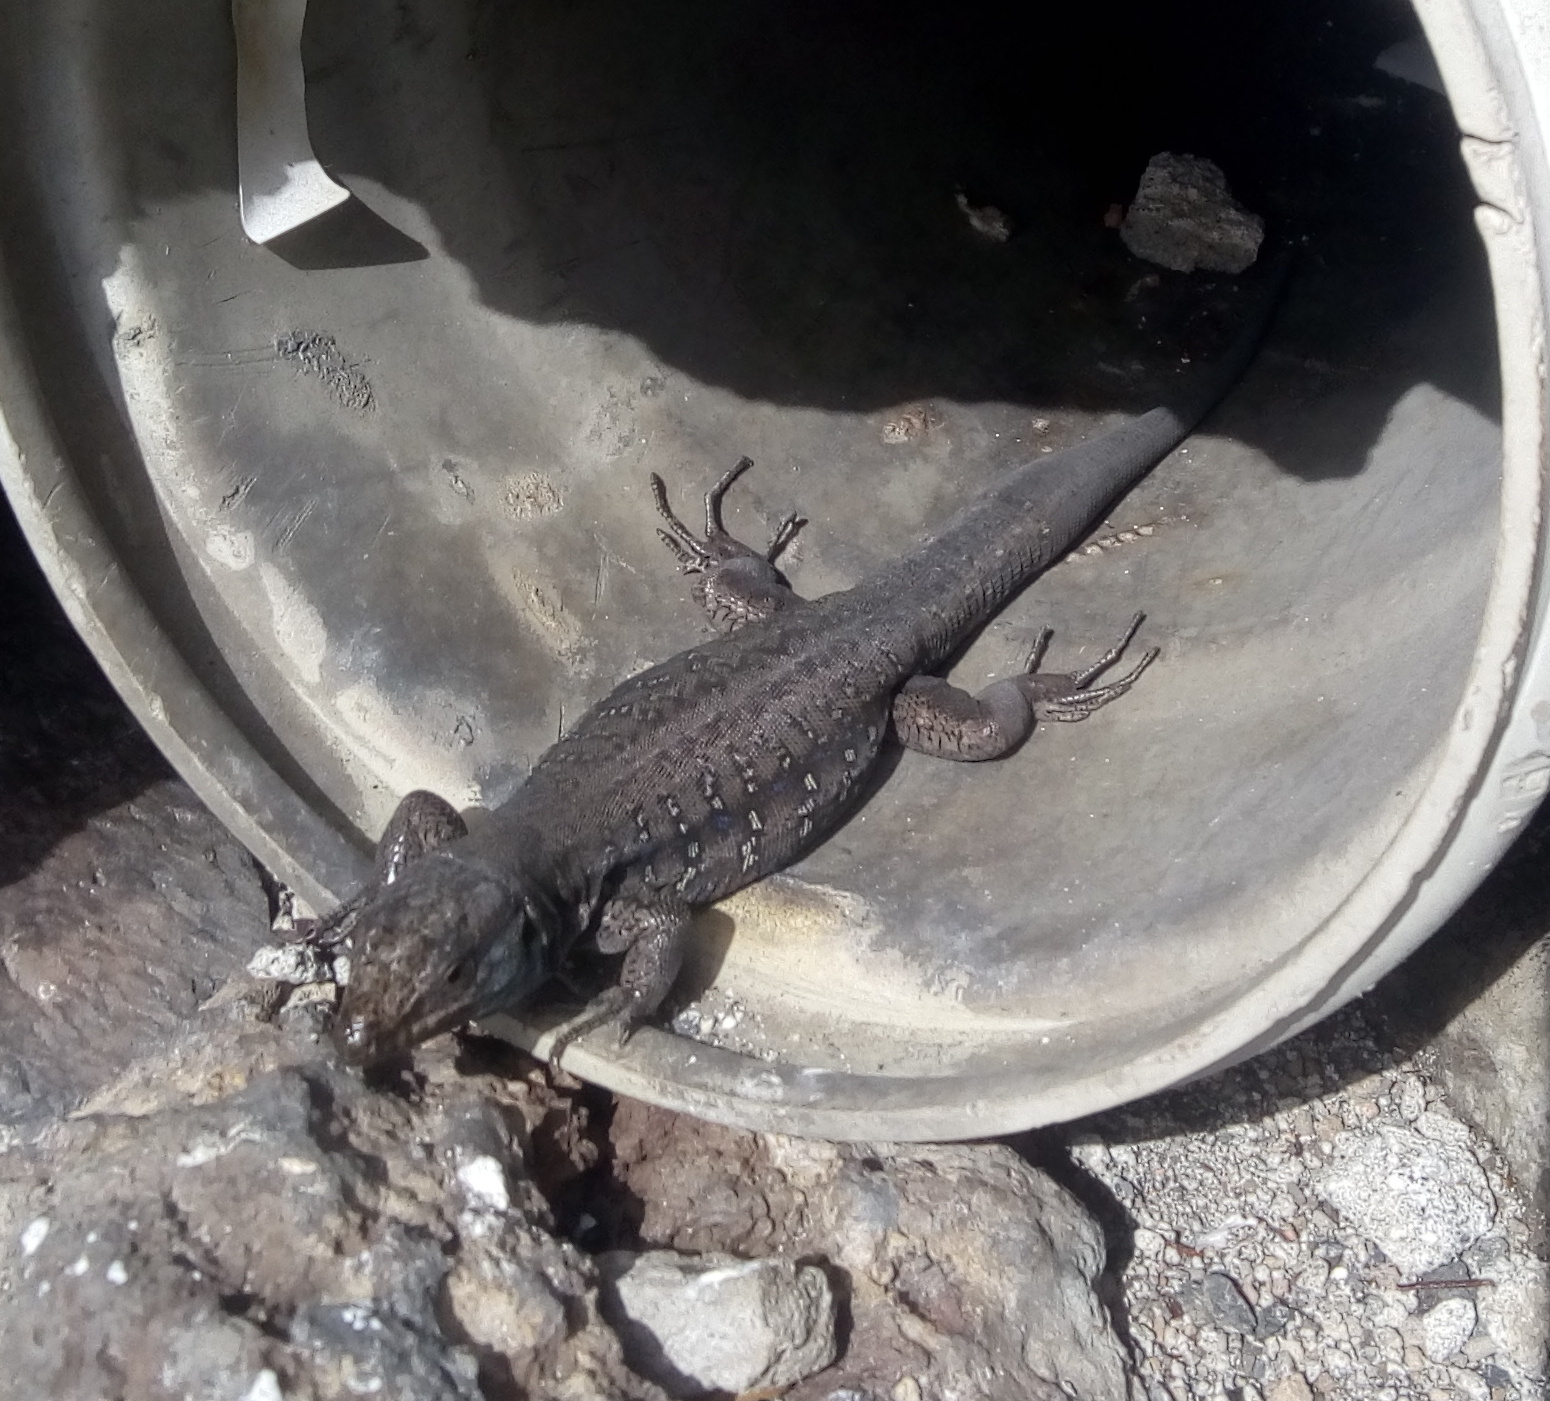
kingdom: Animalia
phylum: Chordata
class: Squamata
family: Lacertidae
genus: Gallotia
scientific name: Gallotia galloti
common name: Gallot's lizard
